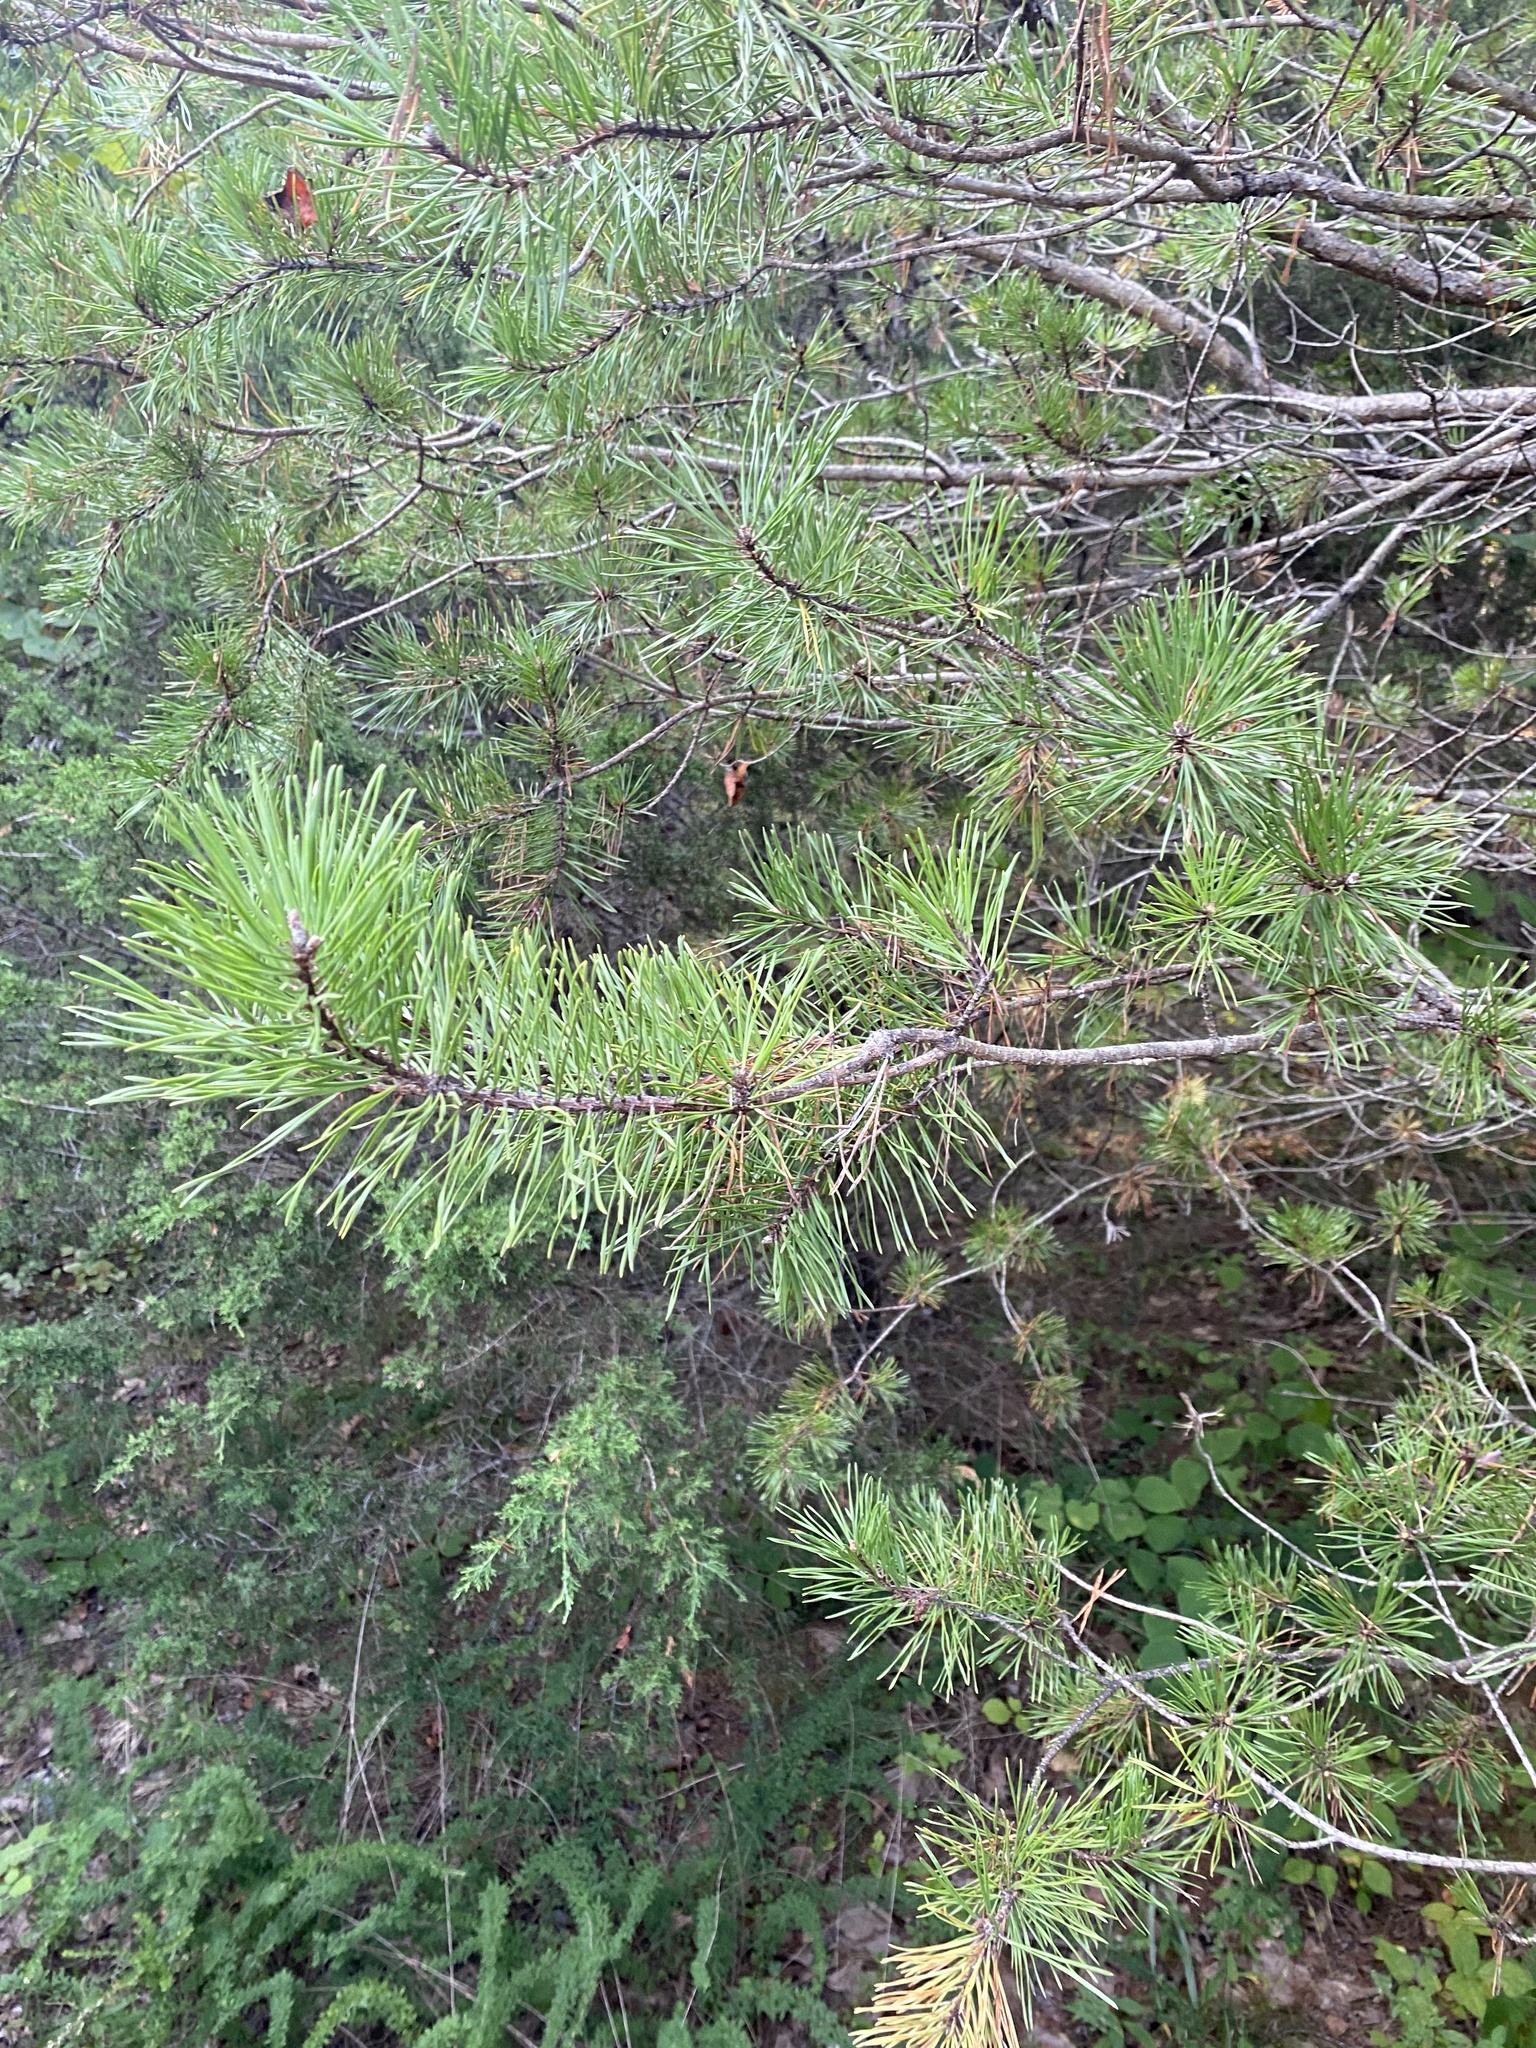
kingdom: Plantae
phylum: Tracheophyta
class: Pinopsida
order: Pinales
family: Pinaceae
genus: Pinus
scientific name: Pinus virginiana
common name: Scrub pine
